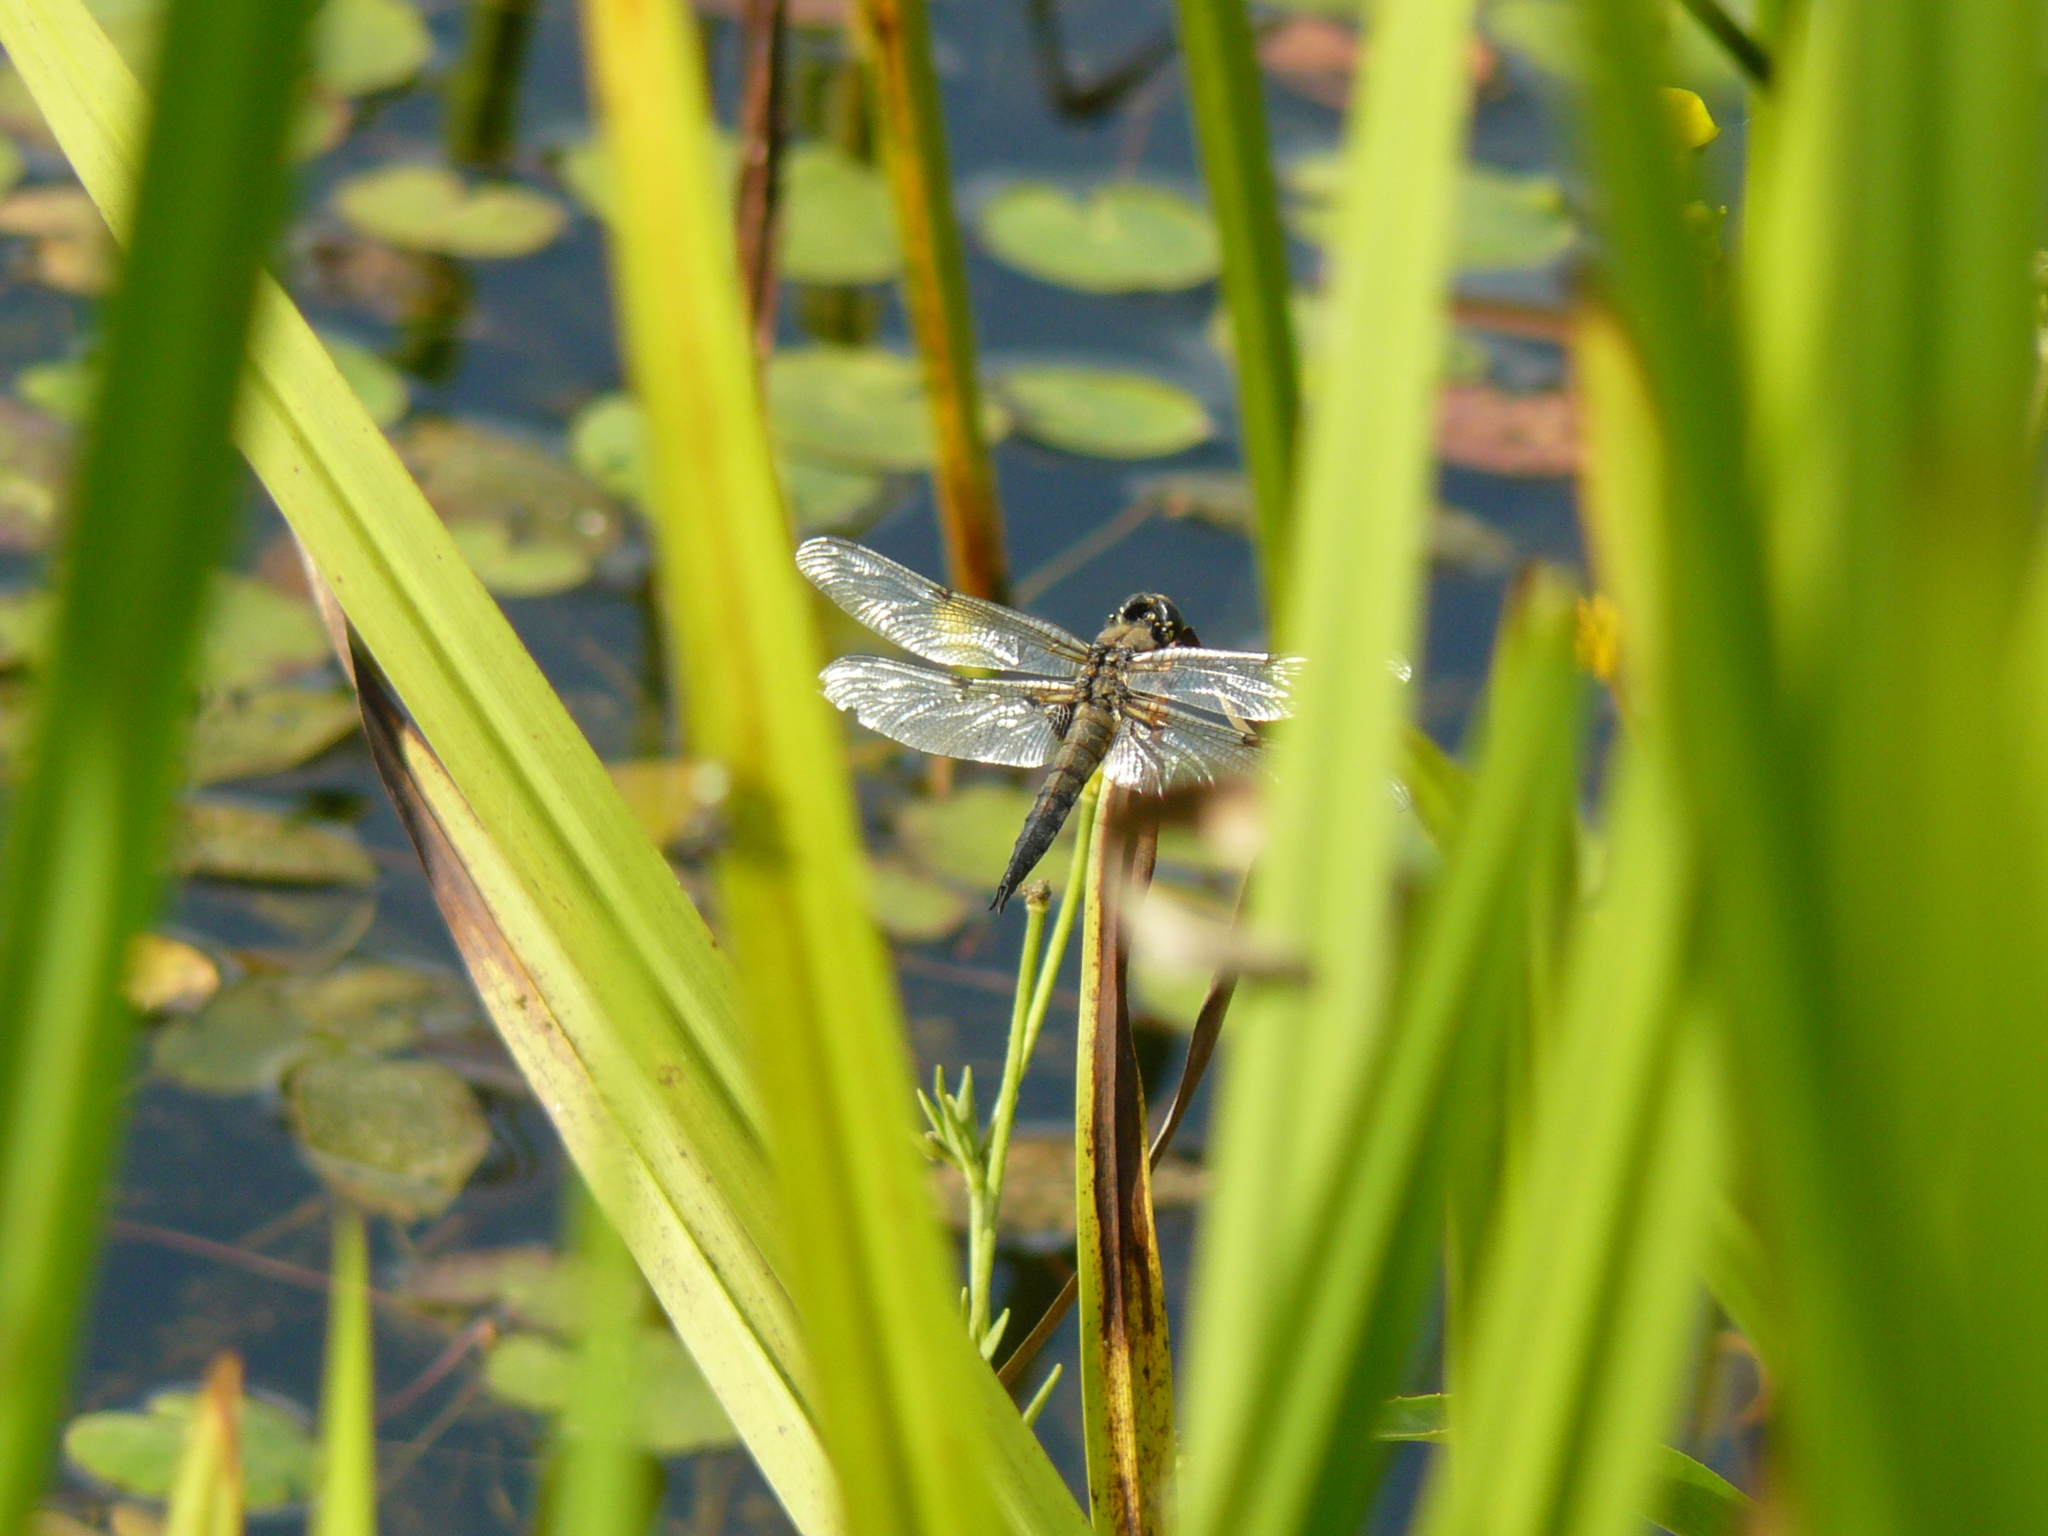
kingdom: Animalia
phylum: Arthropoda
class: Insecta
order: Odonata
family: Libellulidae
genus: Libellula
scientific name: Libellula quadrimaculata
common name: Four-spotted chaser
